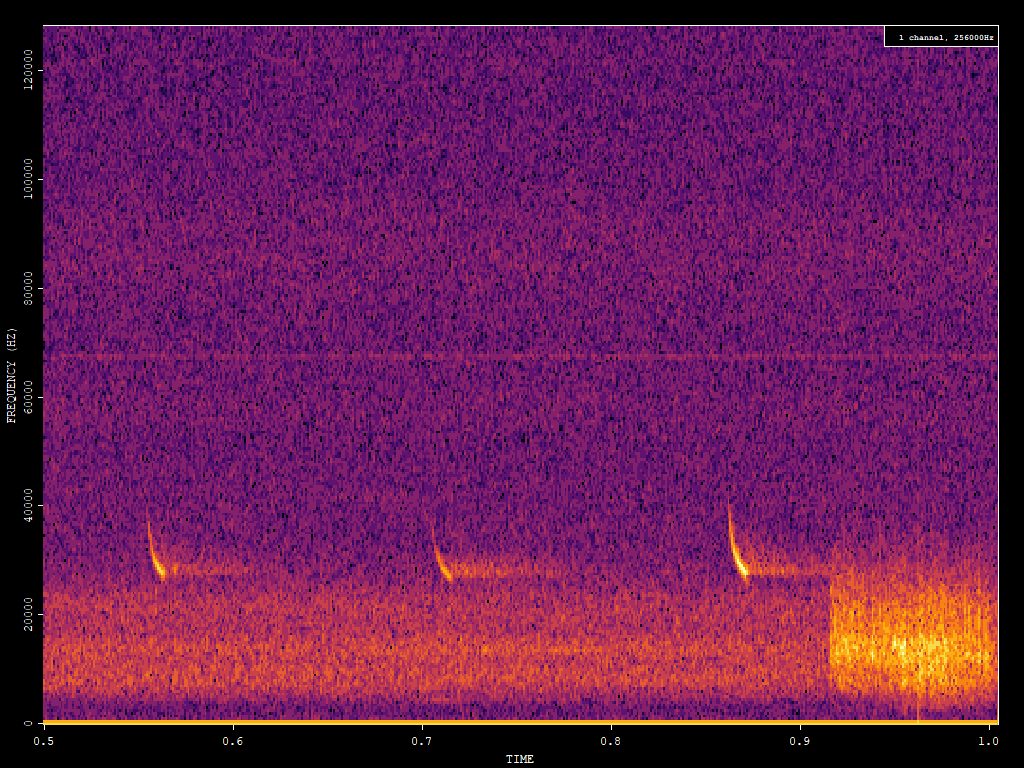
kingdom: Animalia
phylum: Chordata
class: Mammalia
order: Chiroptera
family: Vespertilionidae
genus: Eptesicus
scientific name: Eptesicus fuscus
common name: Big brown bat
